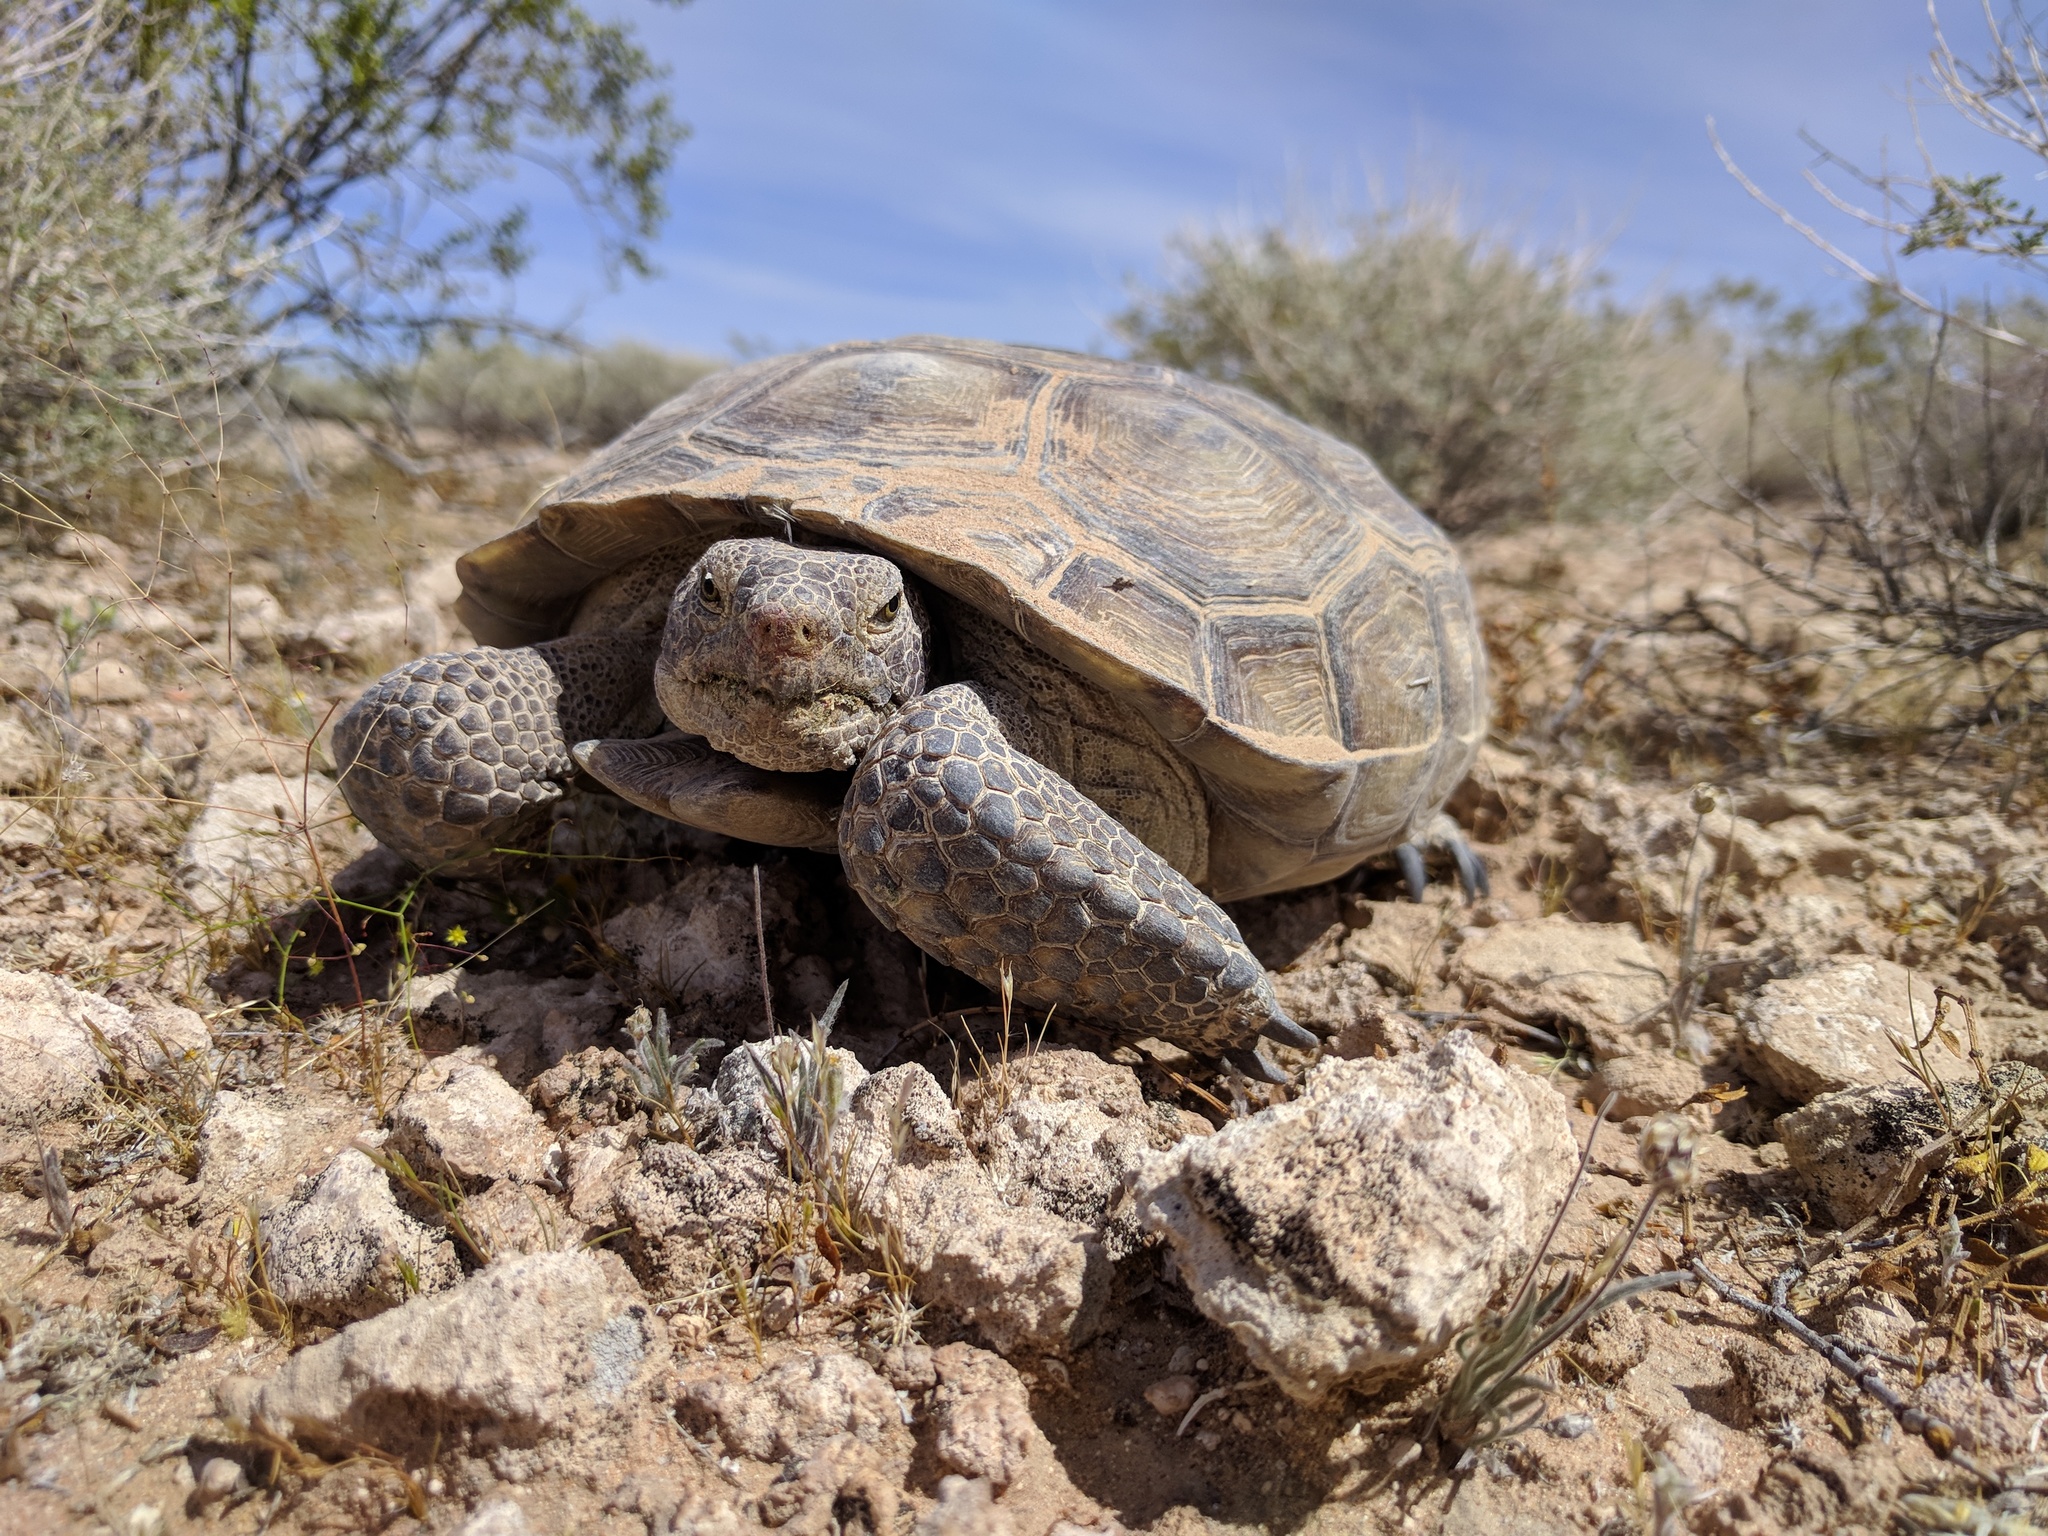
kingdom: Animalia
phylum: Chordata
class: Testudines
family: Testudinidae
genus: Gopherus
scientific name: Gopherus agassizii
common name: Mojave desert tortoise
